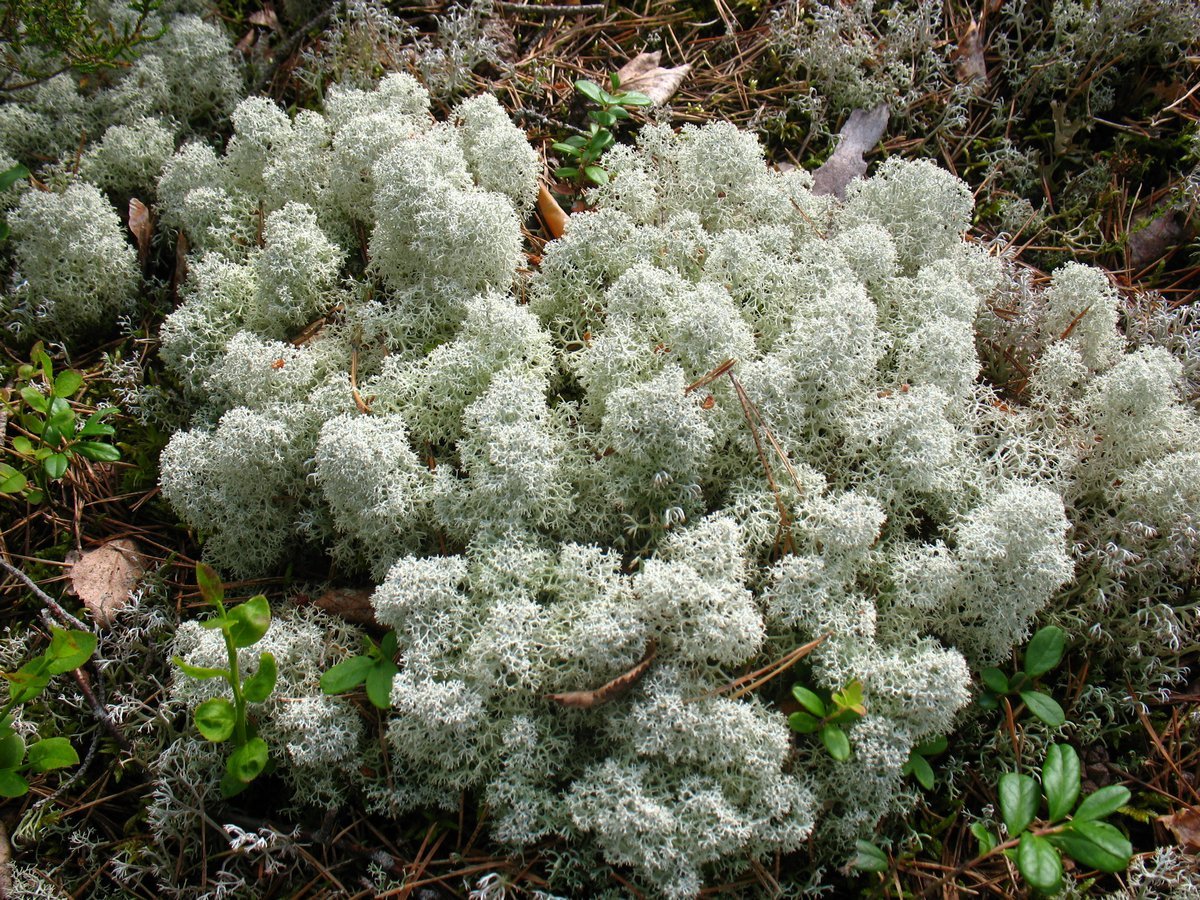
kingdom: Fungi
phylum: Ascomycota
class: Lecanoromycetes
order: Lecanorales
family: Cladoniaceae
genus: Cladonia
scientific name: Cladonia stellaris
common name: Star-tipped reindeer lichen
